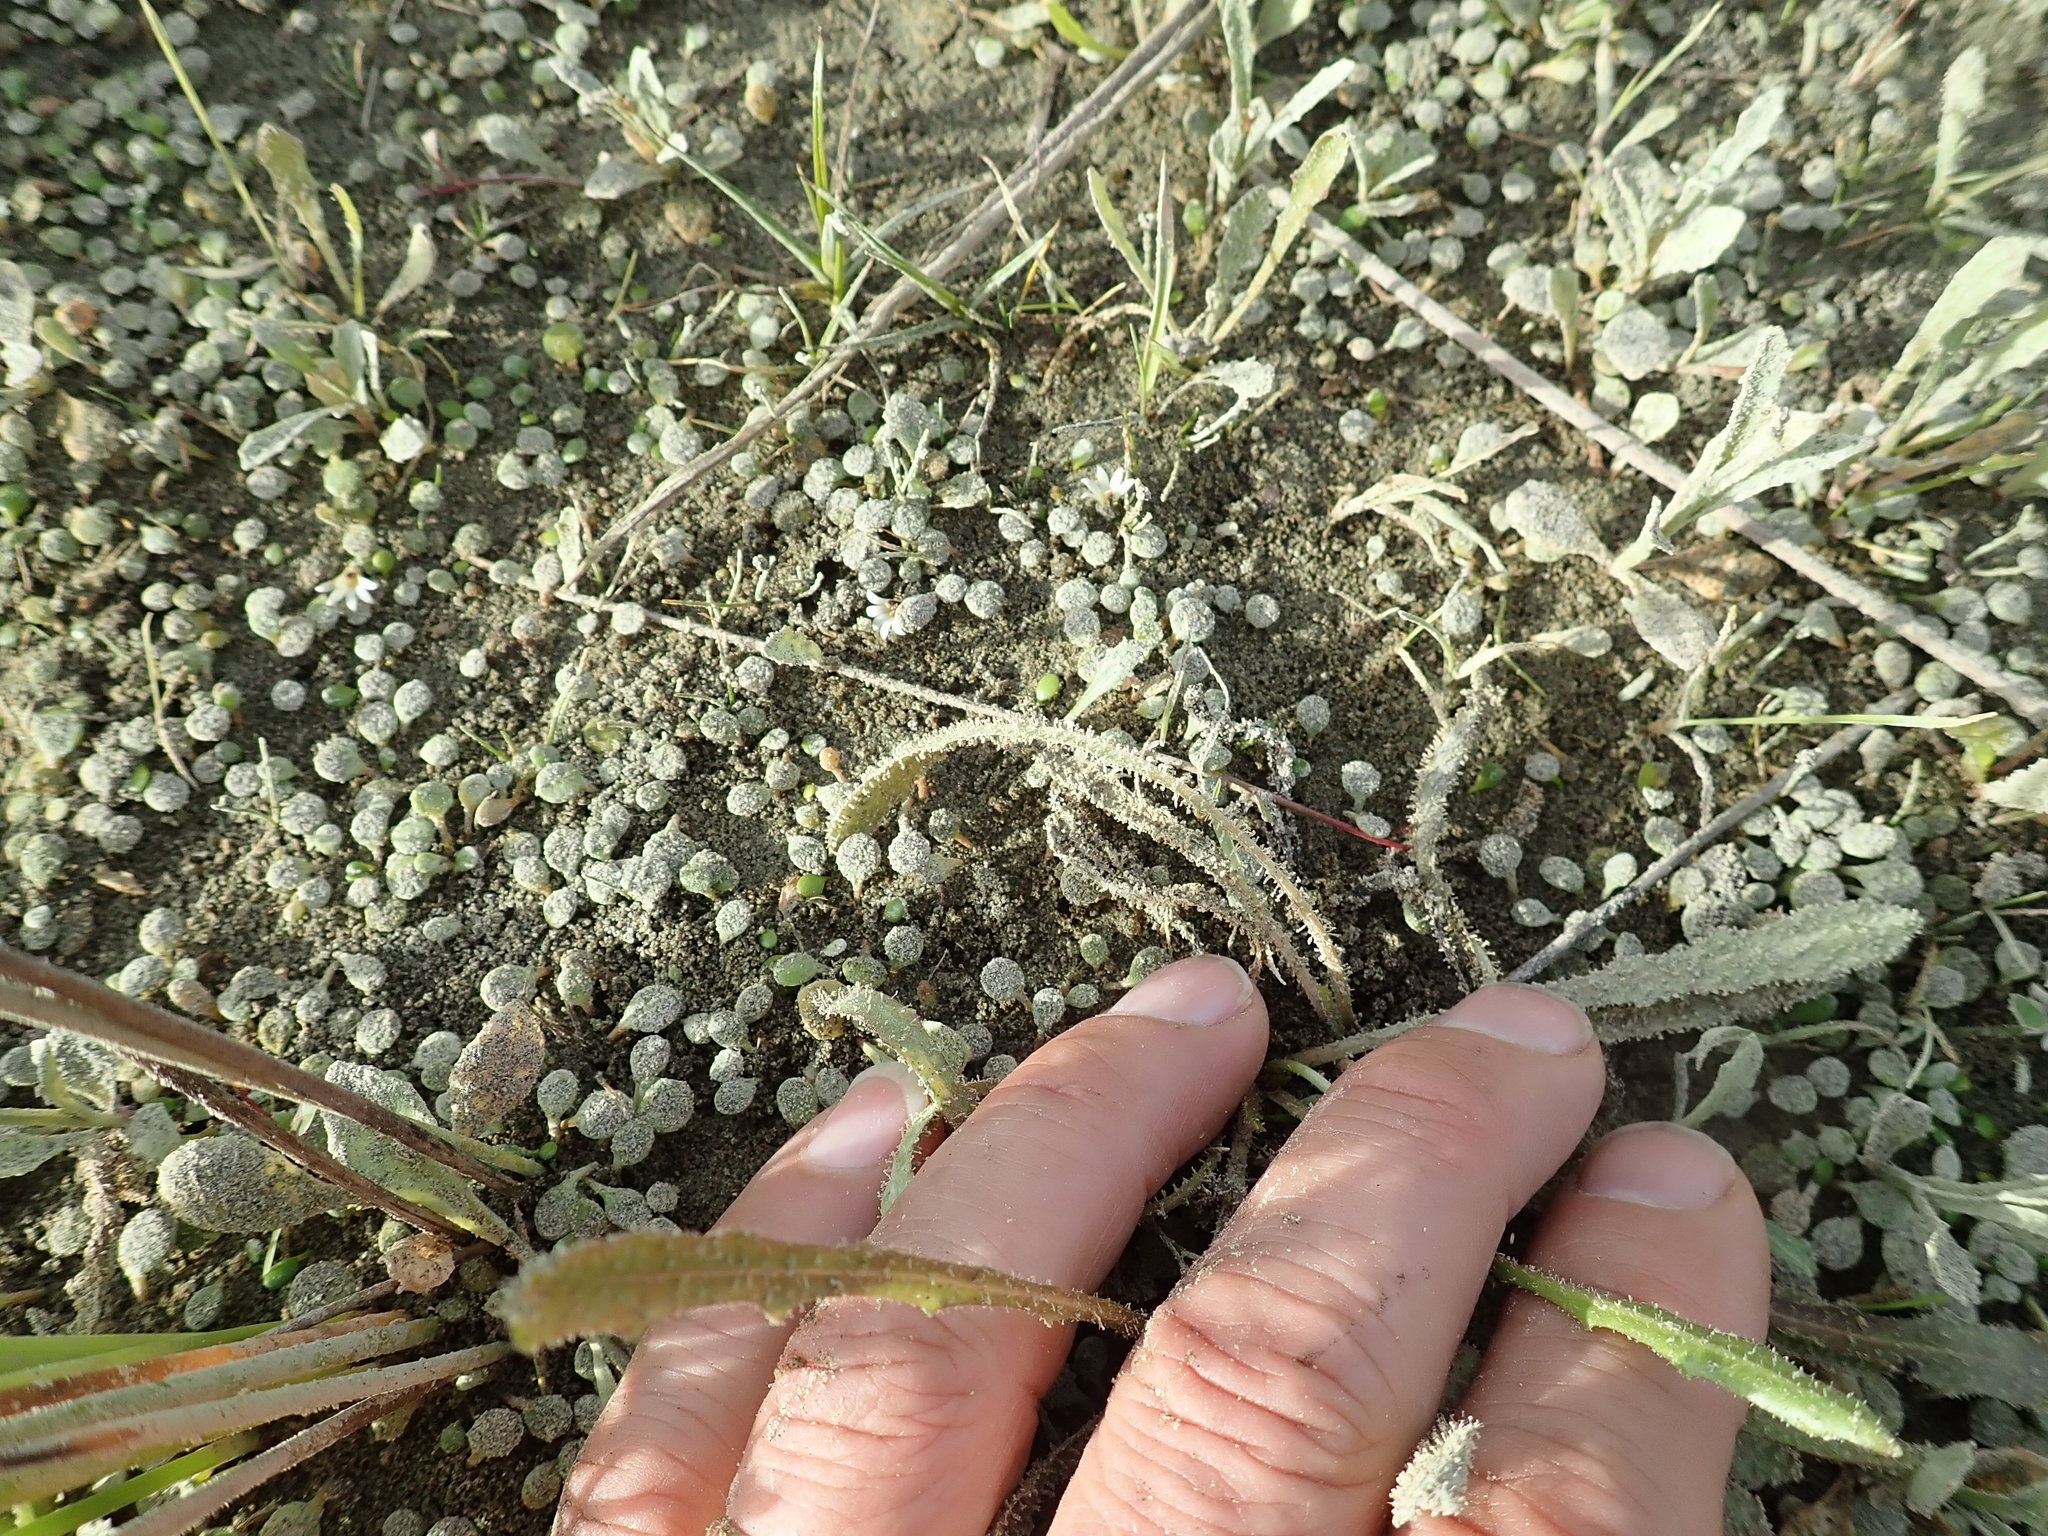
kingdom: Plantae
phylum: Tracheophyta
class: Magnoliopsida
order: Asterales
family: Goodeniaceae
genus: Goodenia
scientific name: Goodenia heenanii
